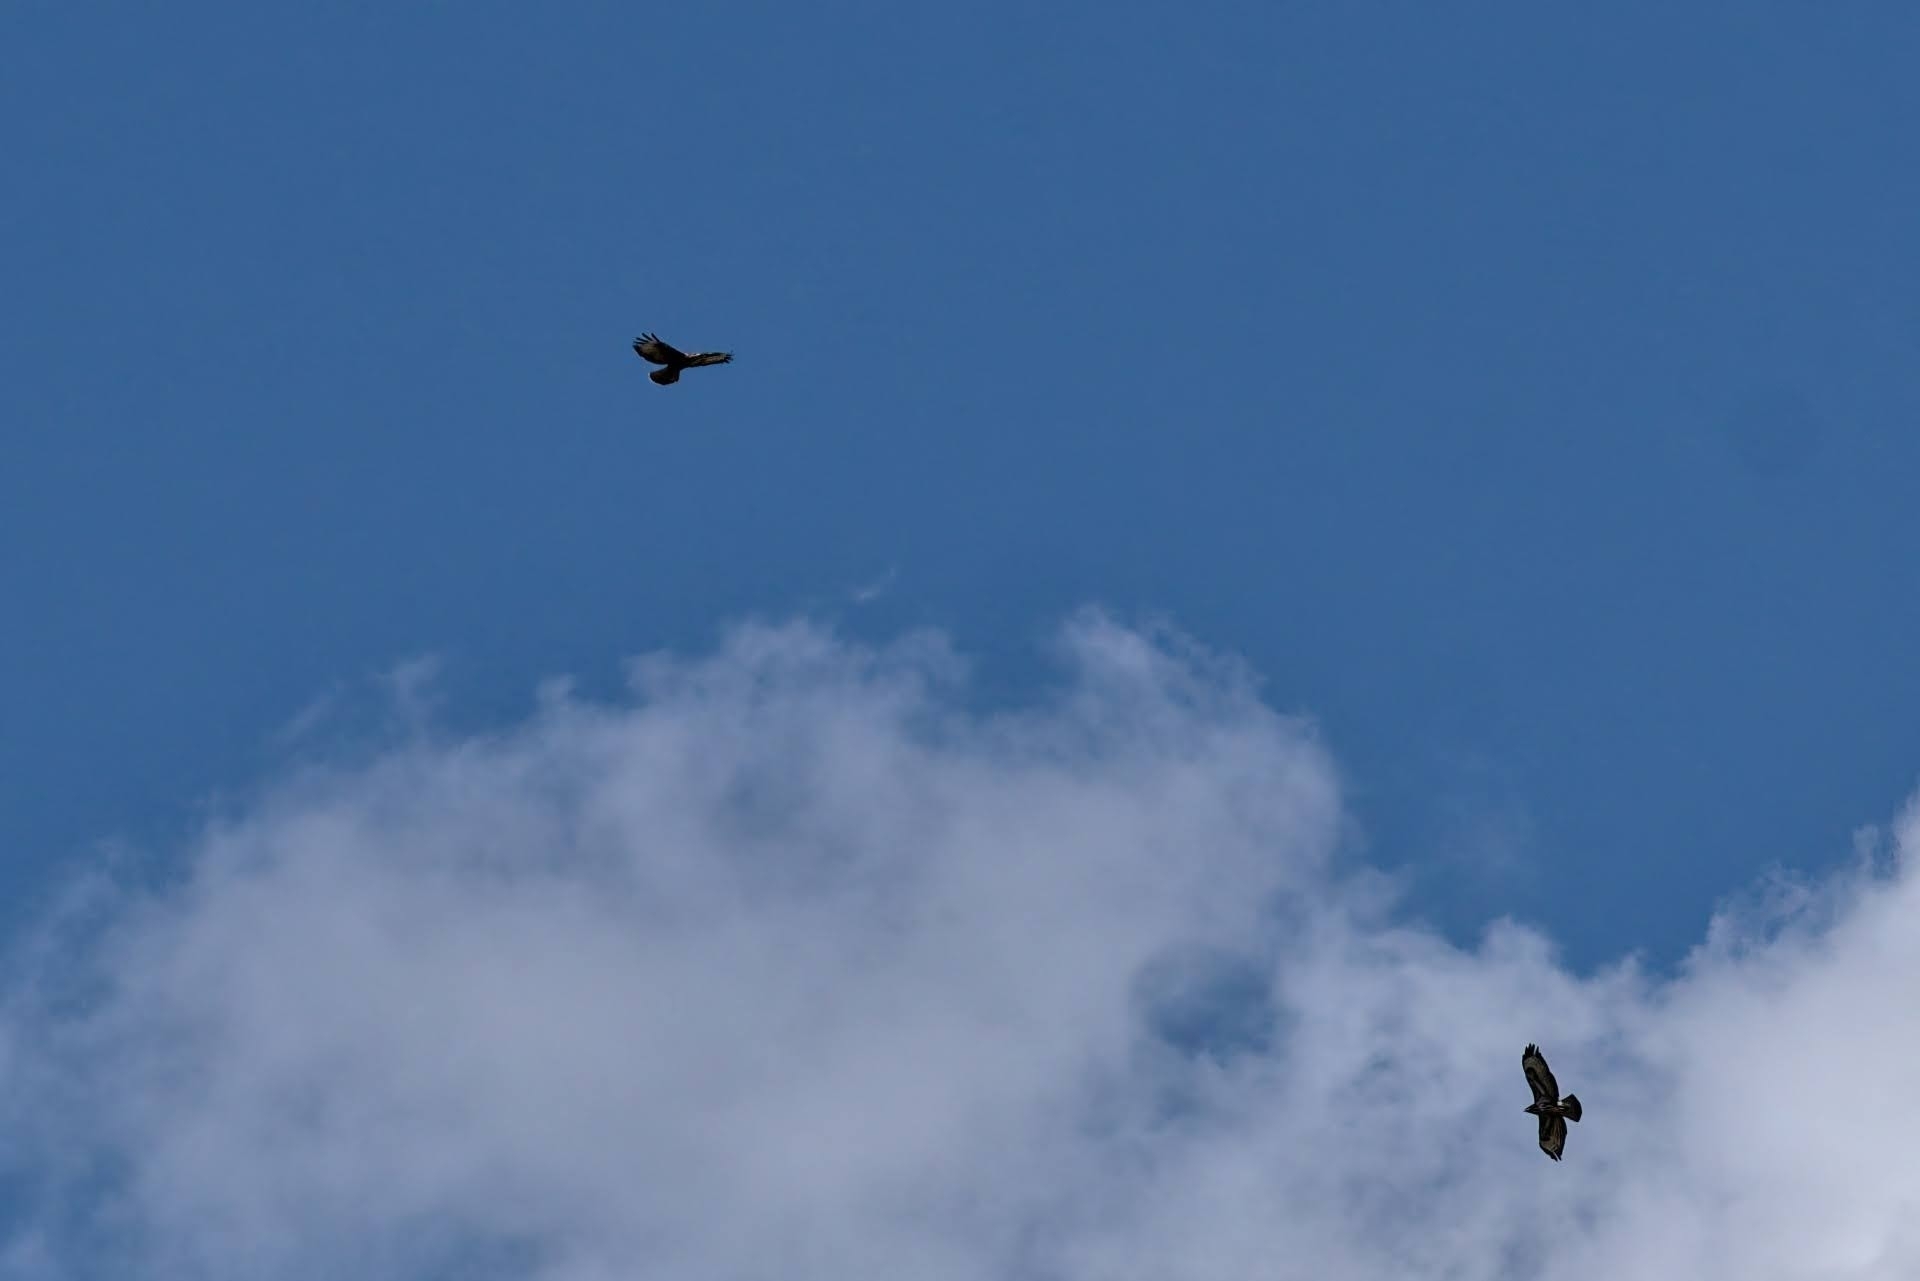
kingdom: Animalia
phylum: Chordata
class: Aves
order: Accipitriformes
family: Accipitridae
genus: Buteo
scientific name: Buteo buteo
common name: Common buzzard
